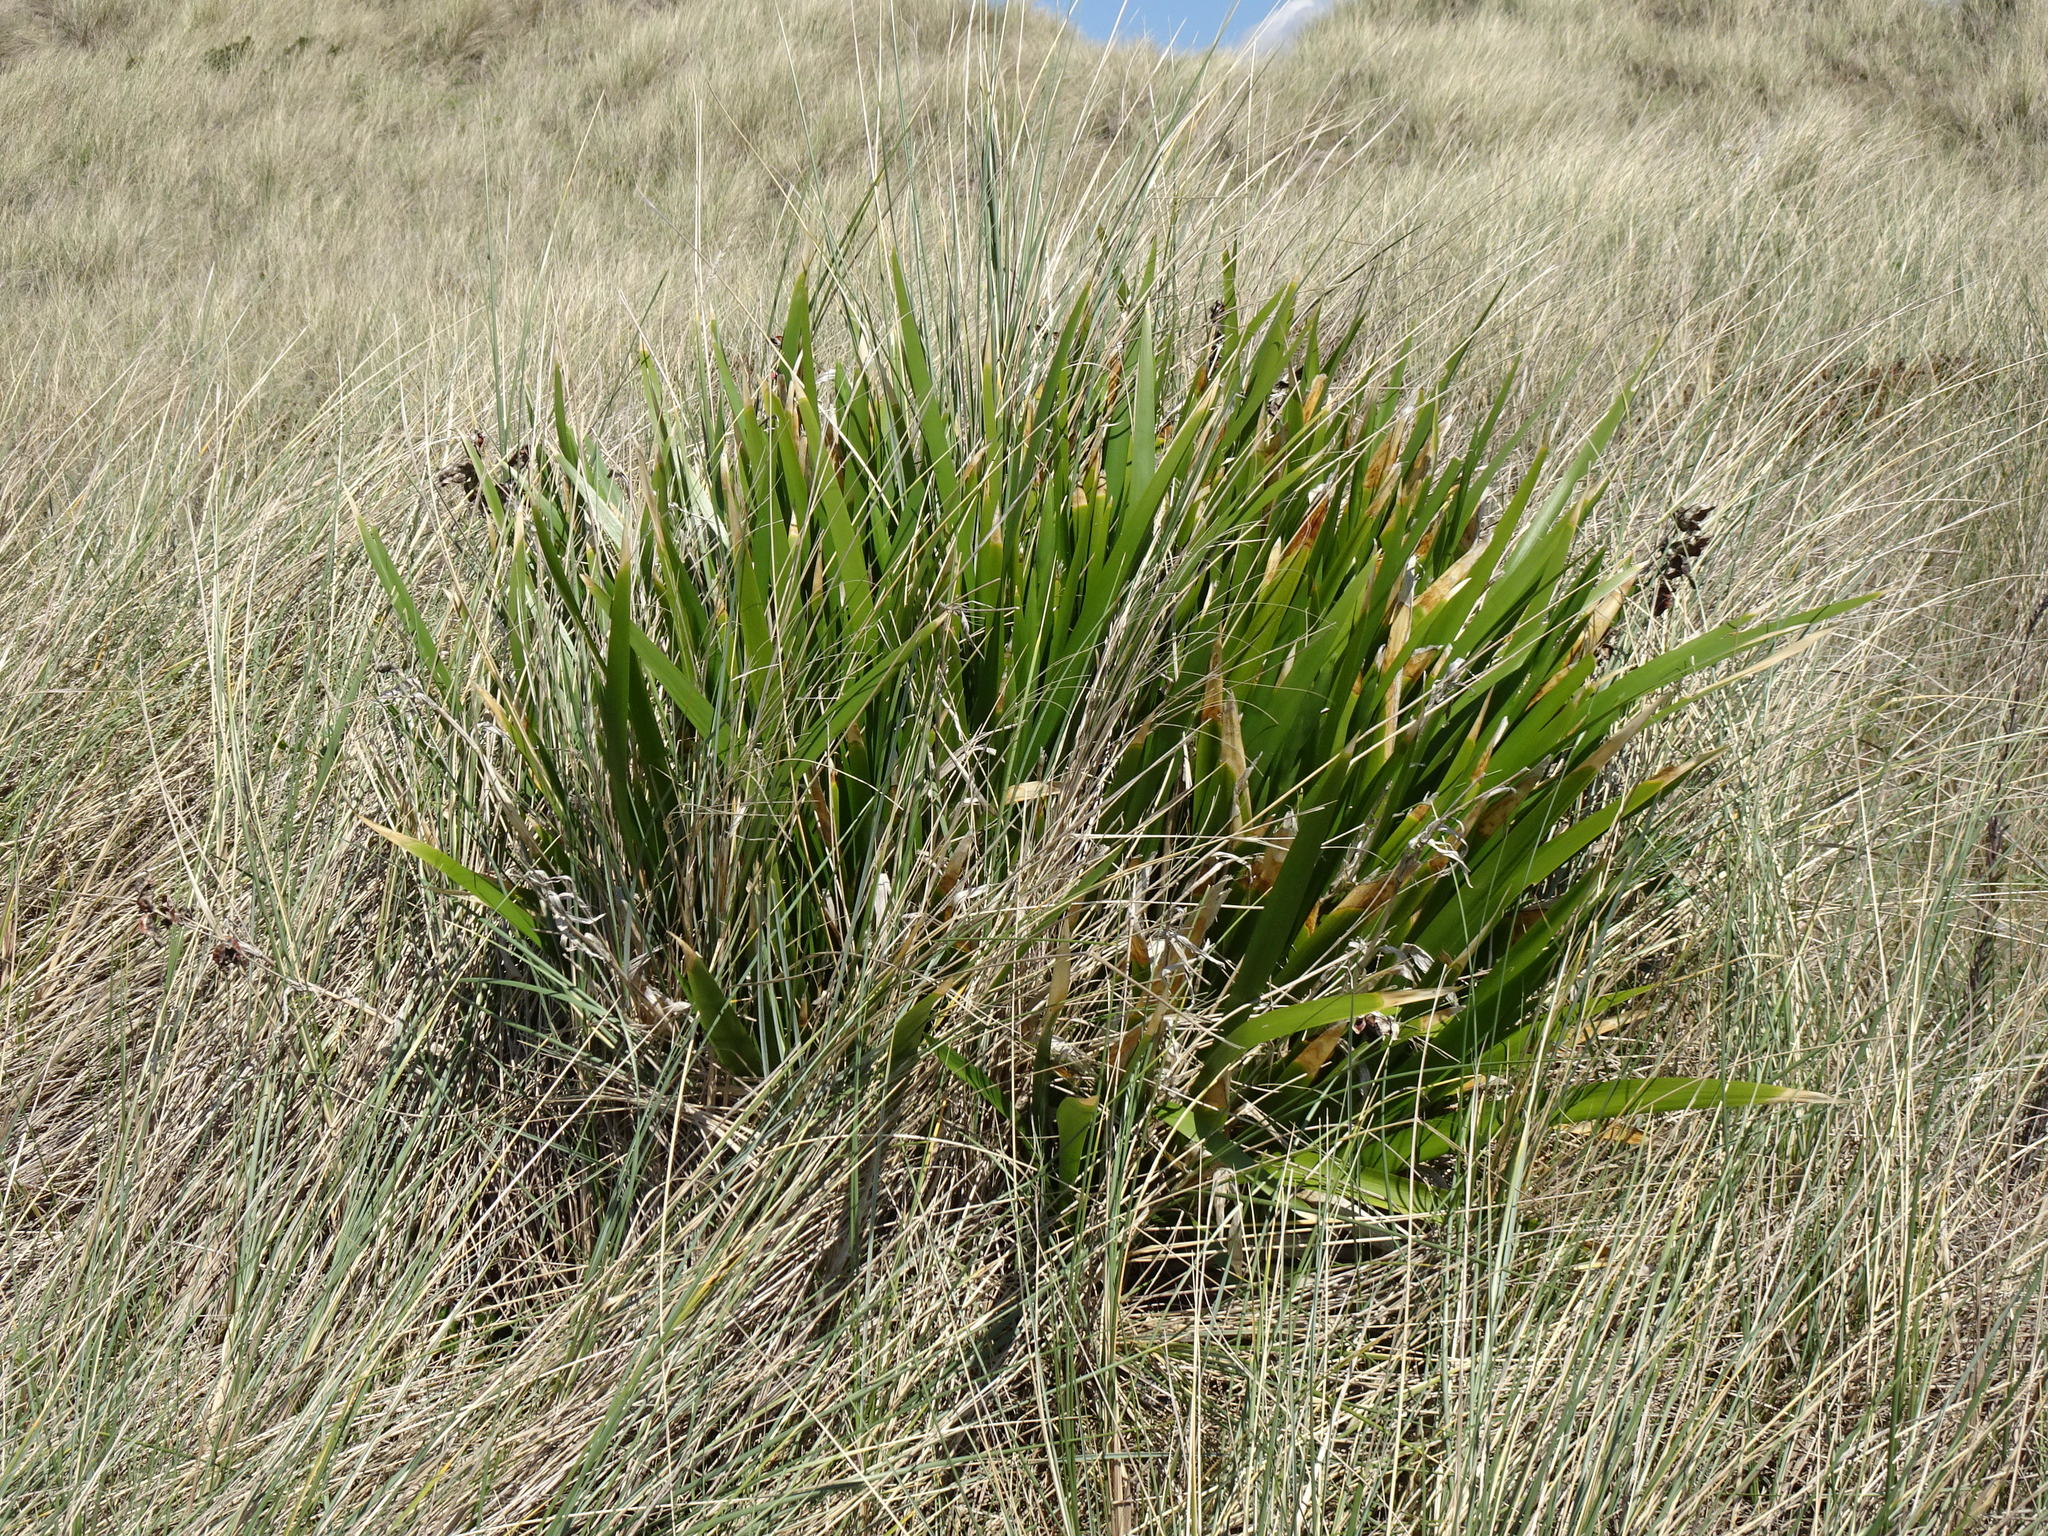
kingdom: Plantae
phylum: Tracheophyta
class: Liliopsida
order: Asparagales
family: Iridaceae
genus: Iris
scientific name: Iris foetidissima
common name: Stinking iris
